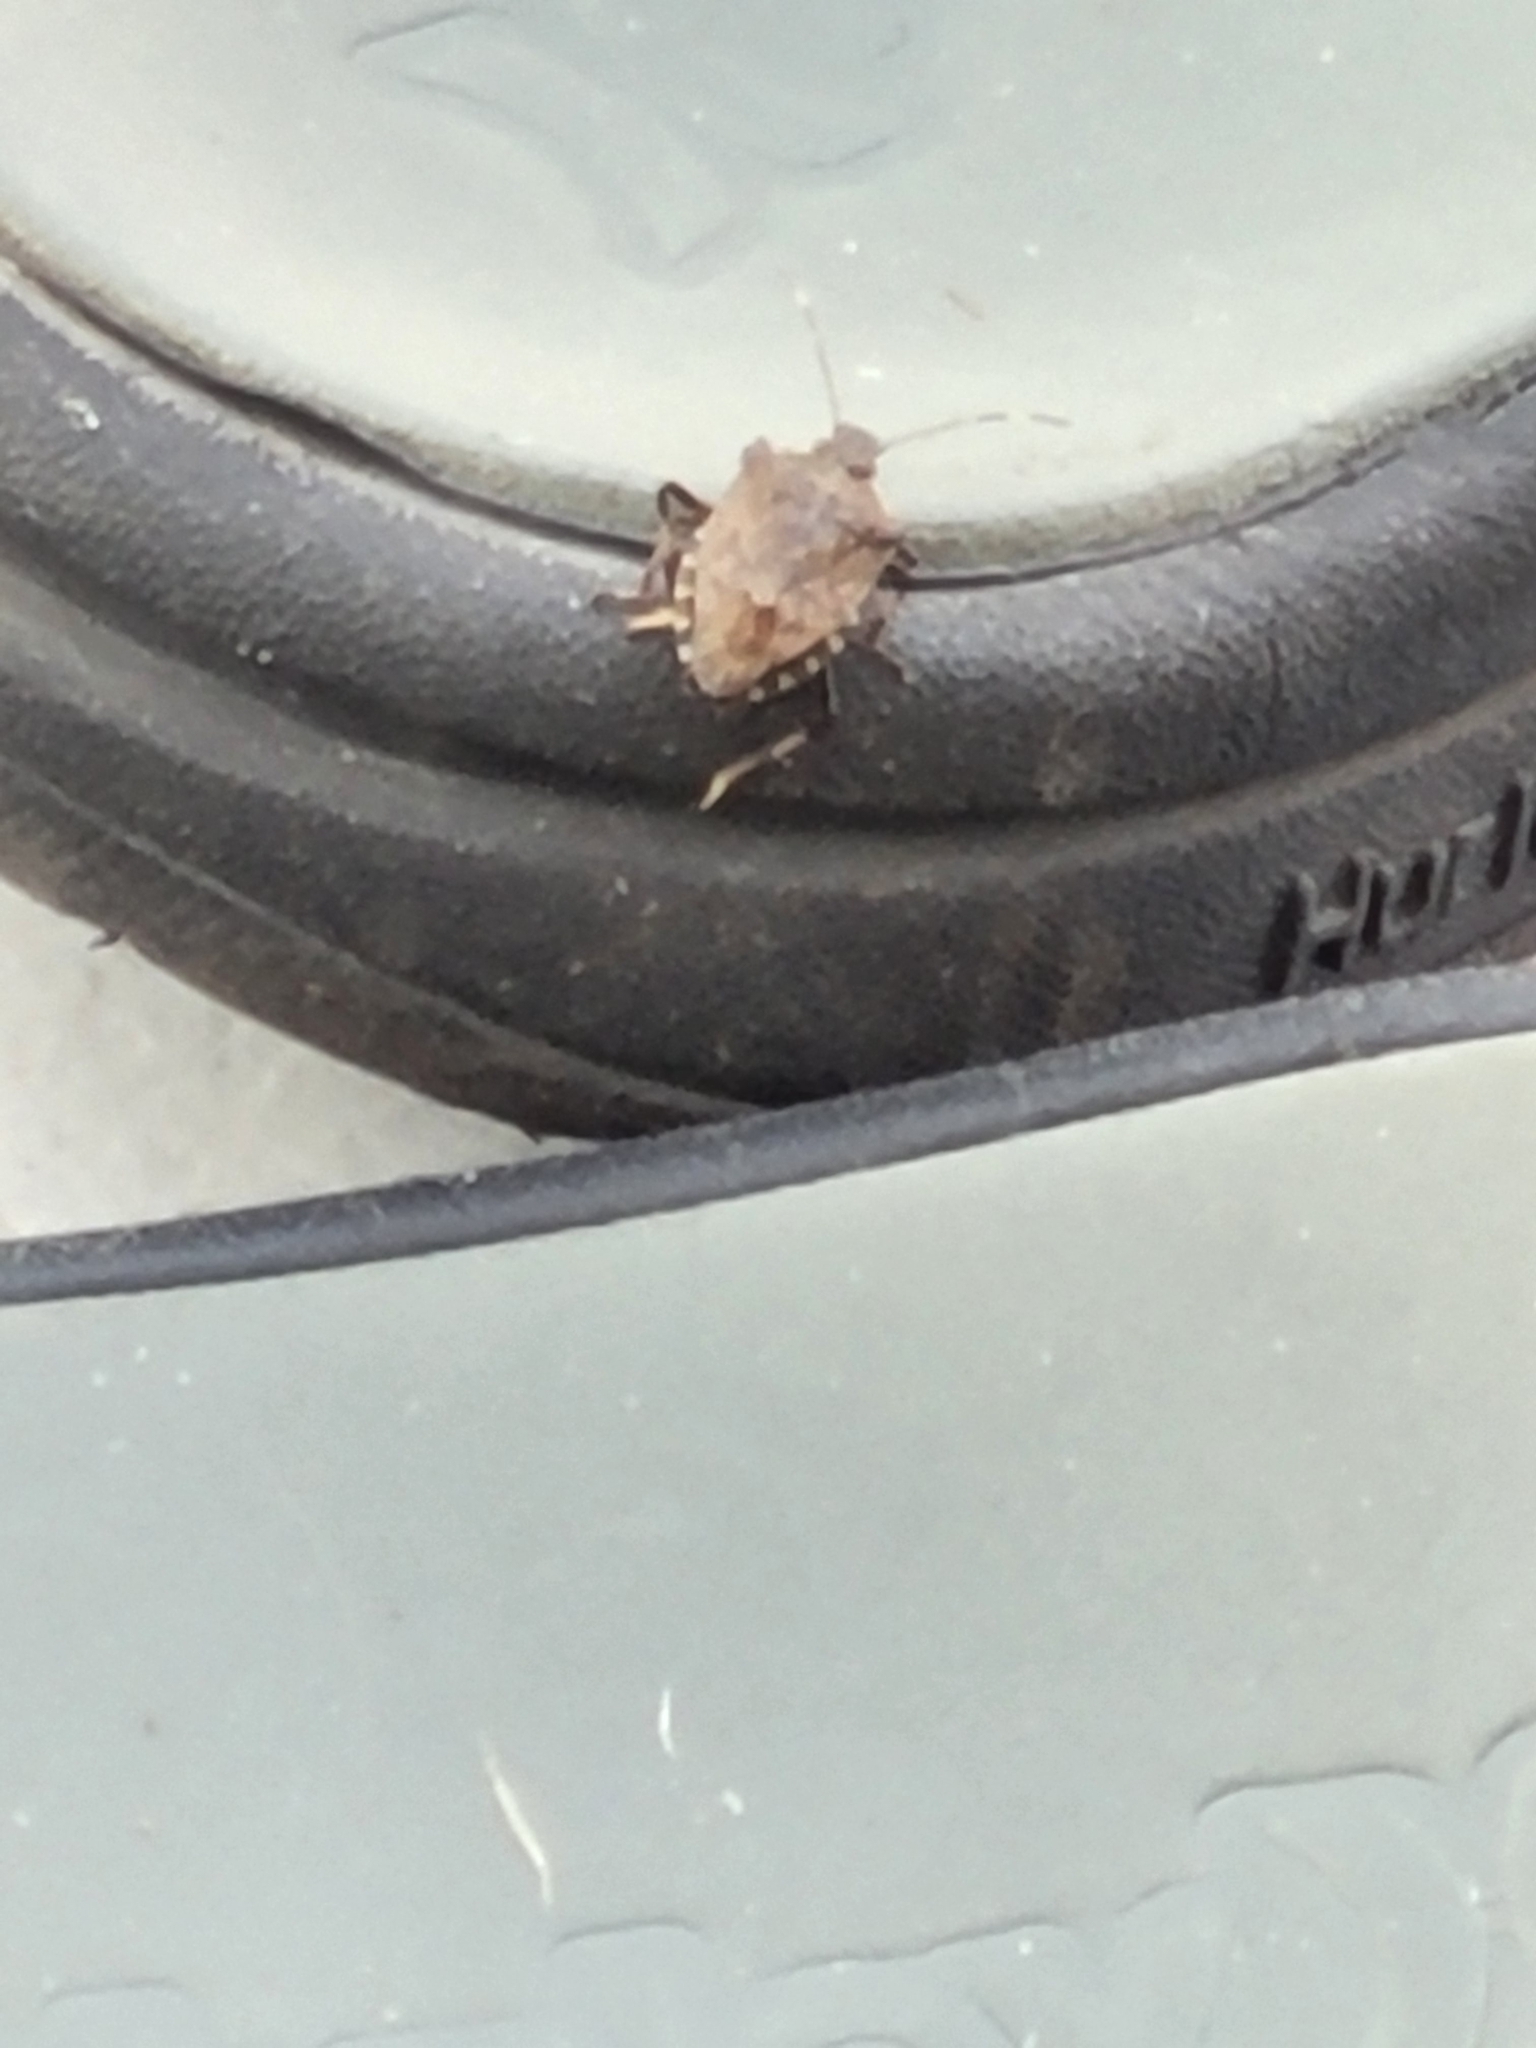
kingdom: Animalia
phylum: Arthropoda
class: Insecta
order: Hemiptera
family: Pentatomidae
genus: Halyomorpha
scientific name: Halyomorpha halys
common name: Brown marmorated stink bug
